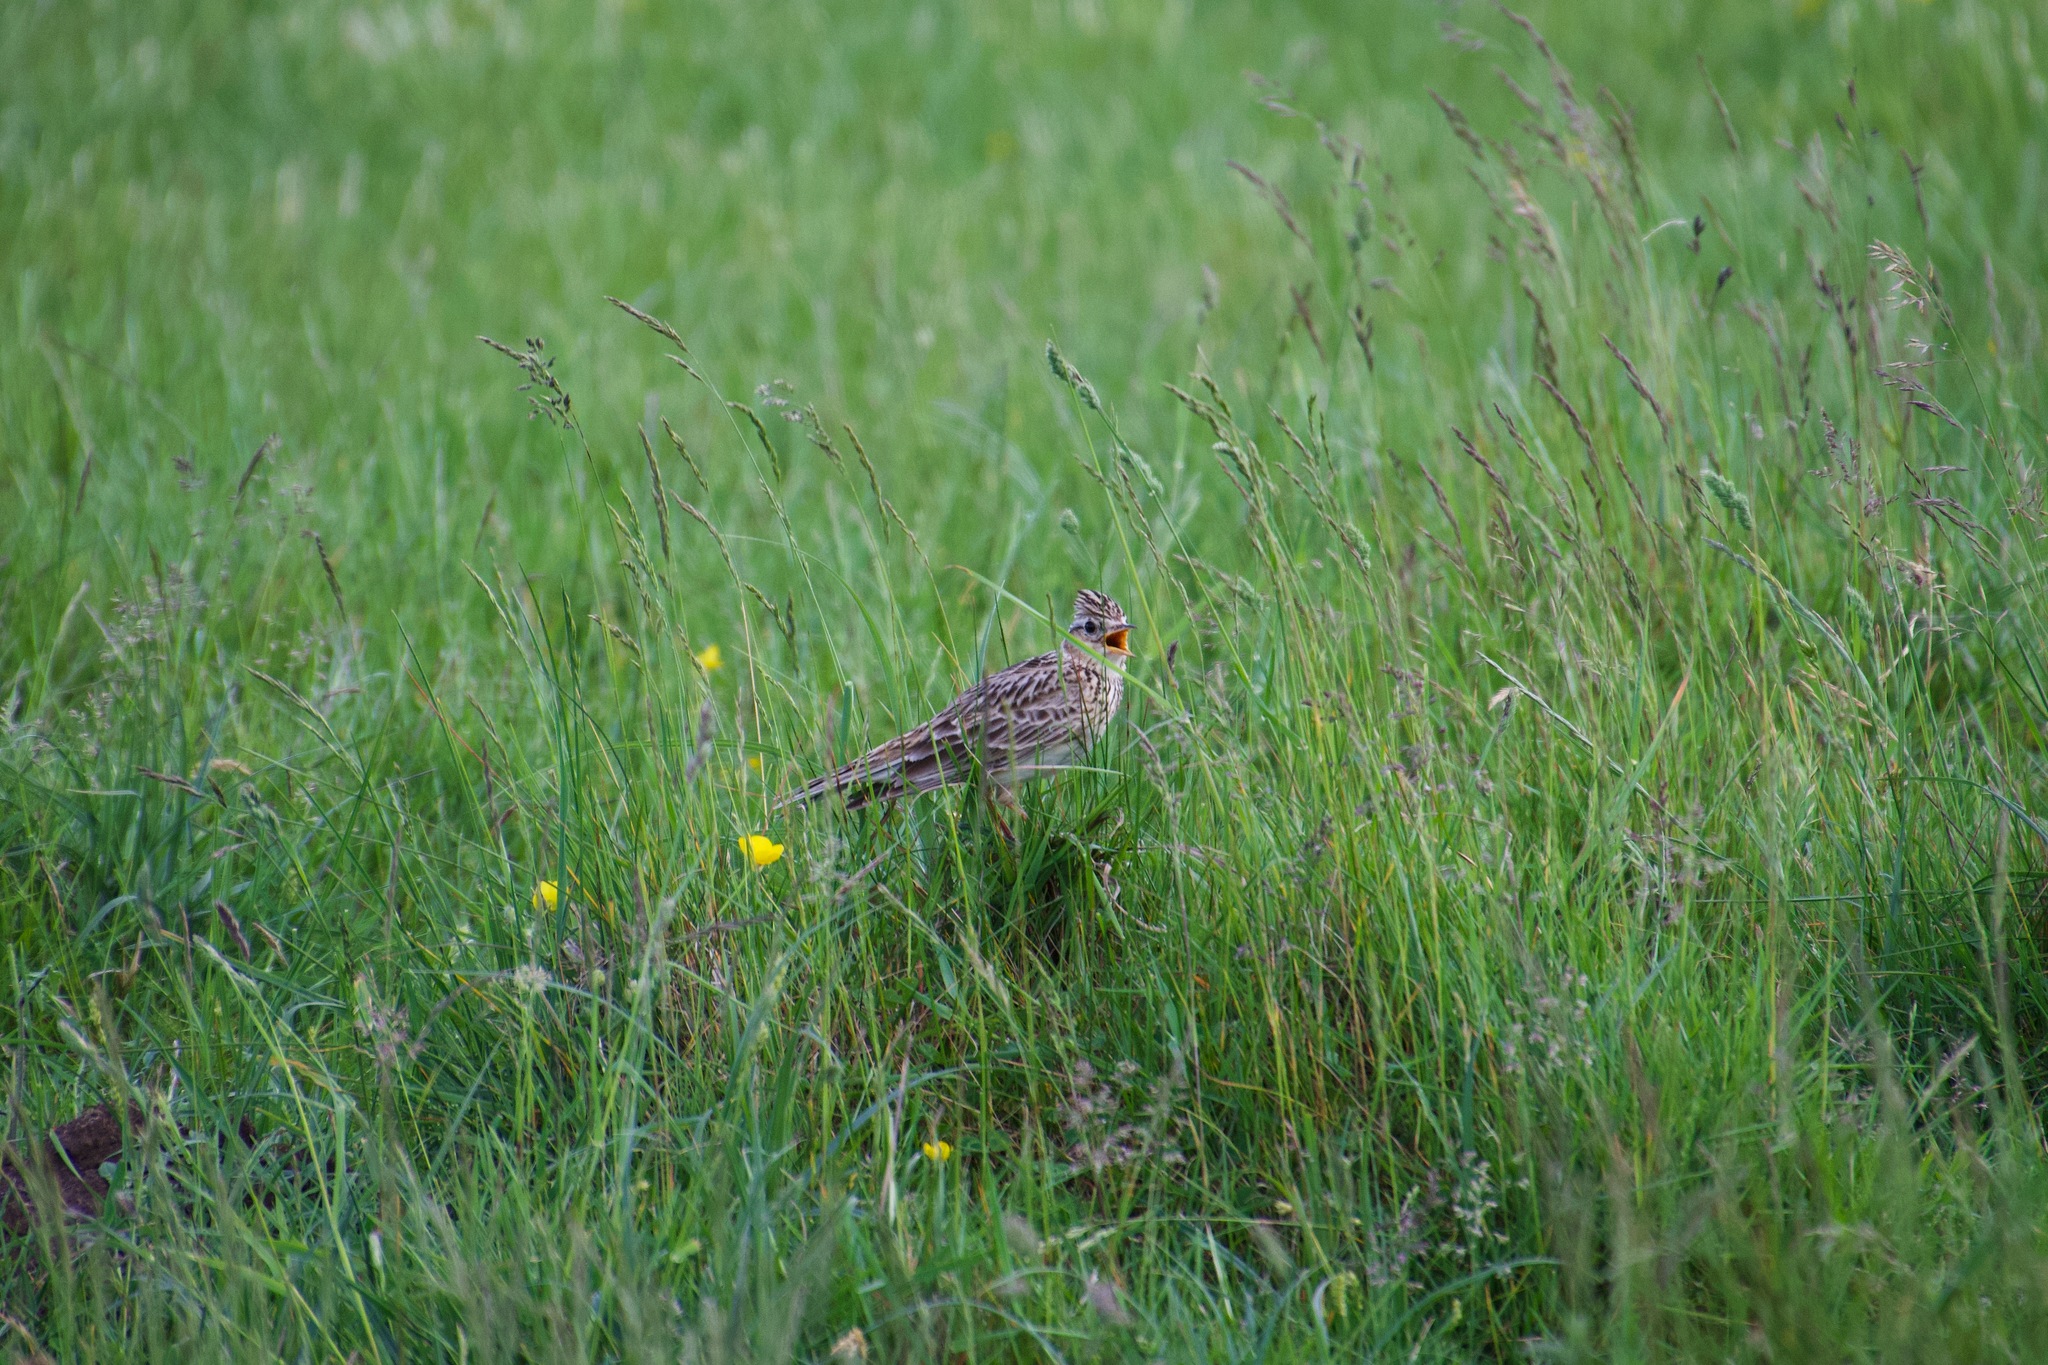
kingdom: Animalia
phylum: Chordata
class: Aves
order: Passeriformes
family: Alaudidae
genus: Alauda
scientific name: Alauda arvensis
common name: Eurasian skylark
